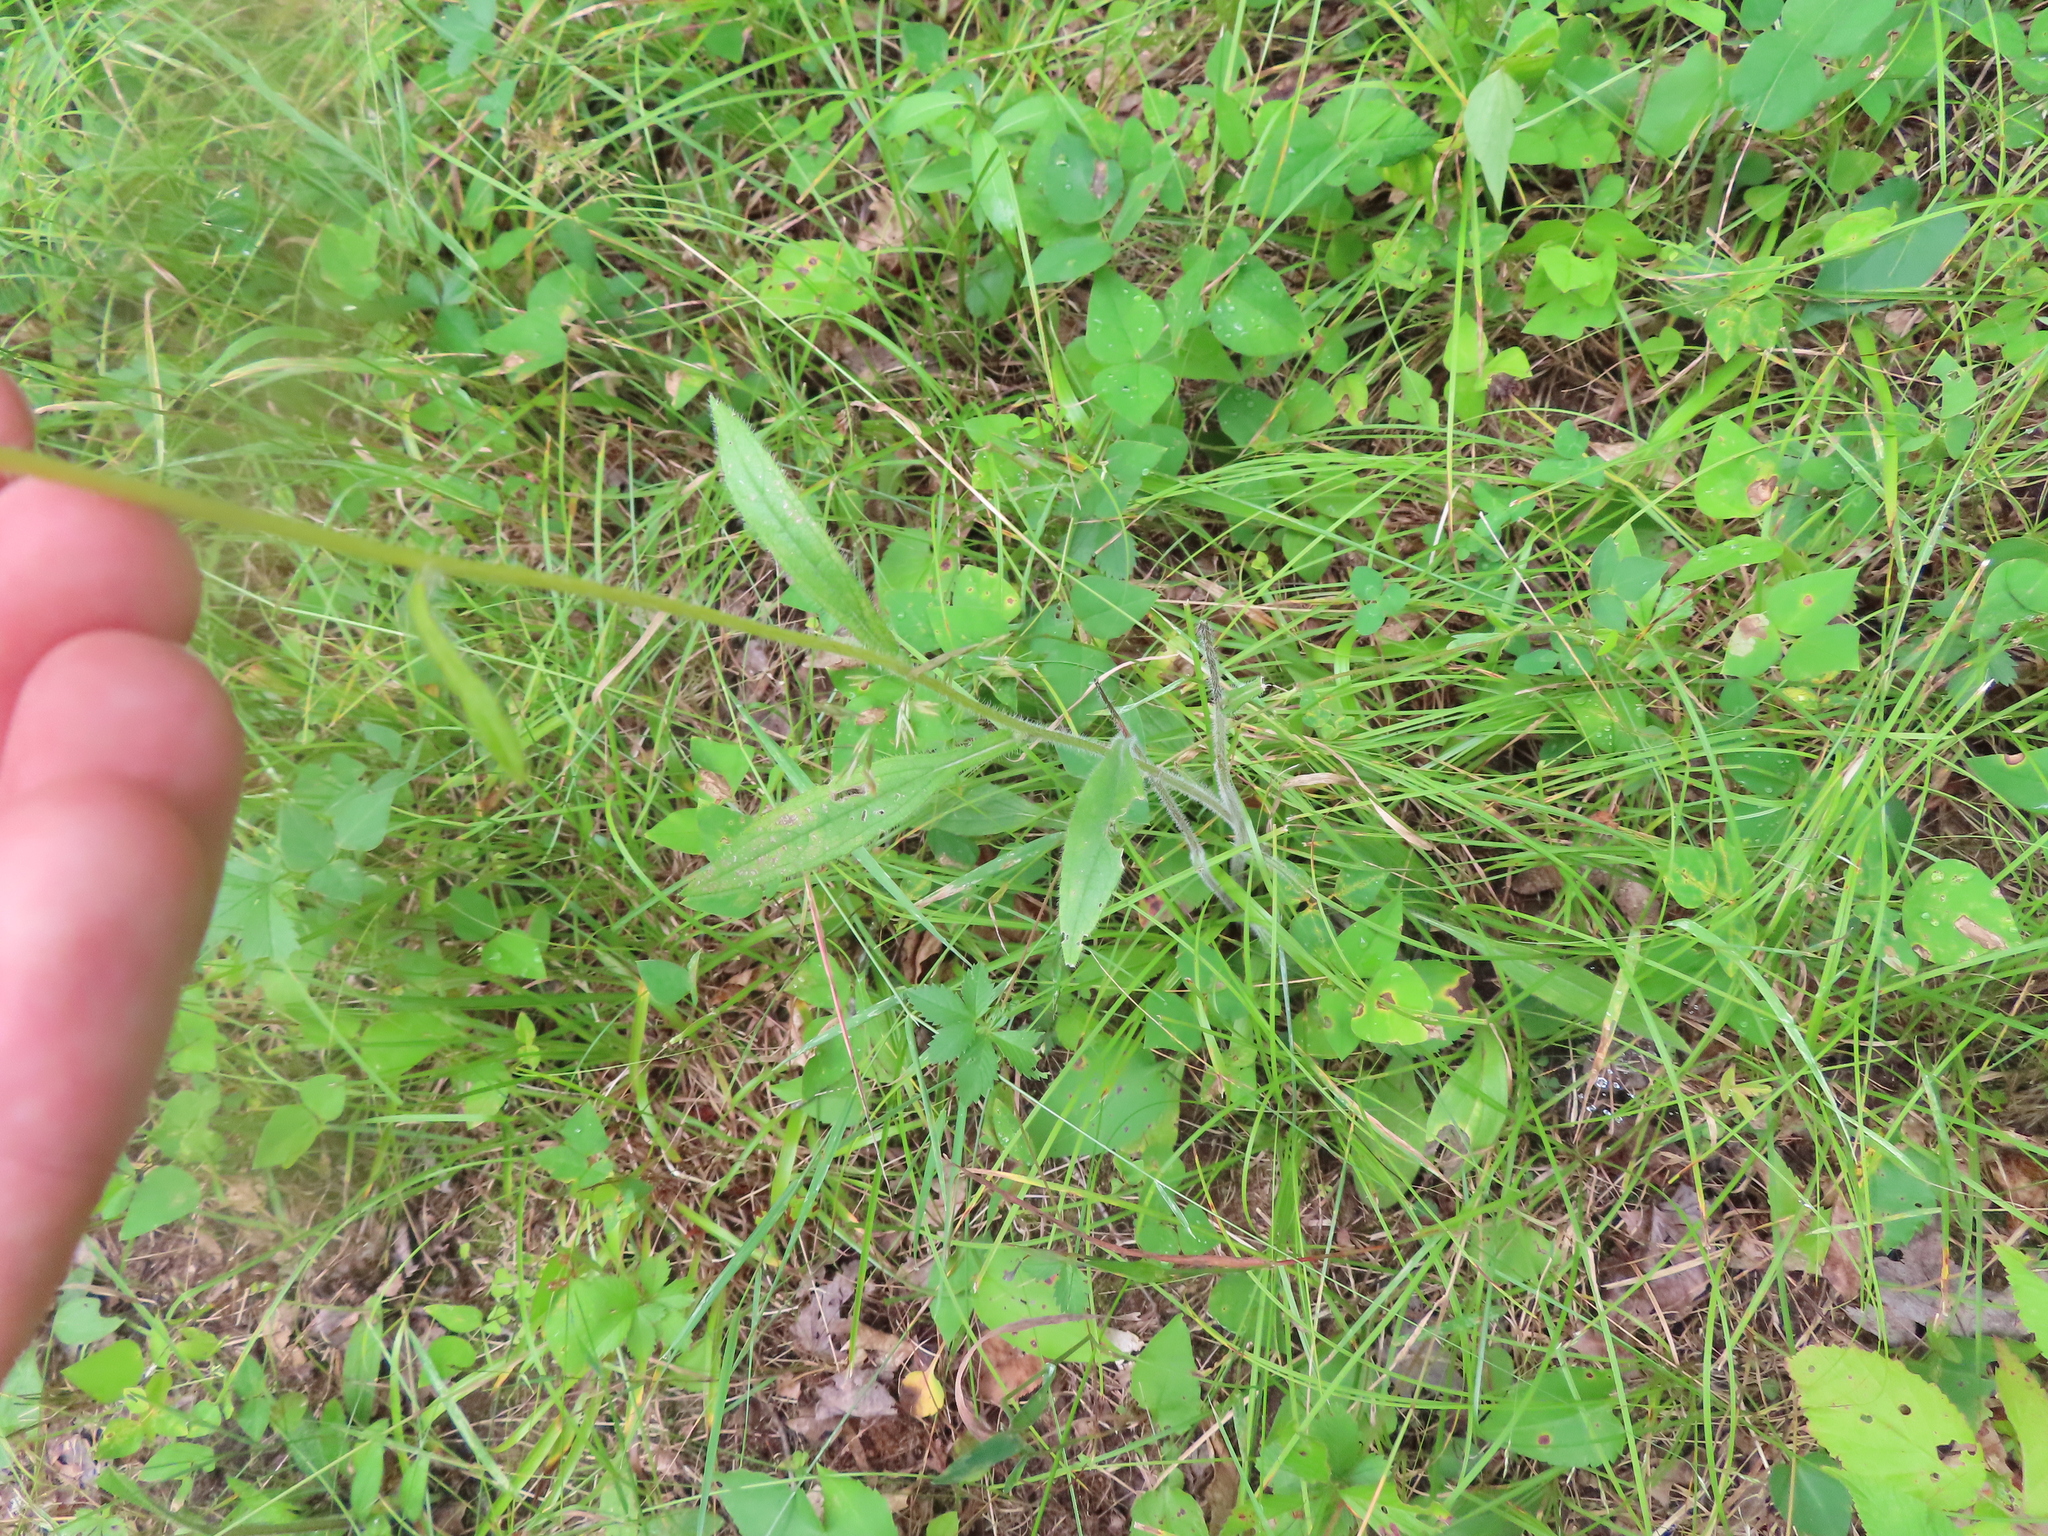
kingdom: Plantae
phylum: Tracheophyta
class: Magnoliopsida
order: Asterales
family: Asteraceae
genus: Rudbeckia
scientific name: Rudbeckia hirta
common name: Black-eyed-susan
